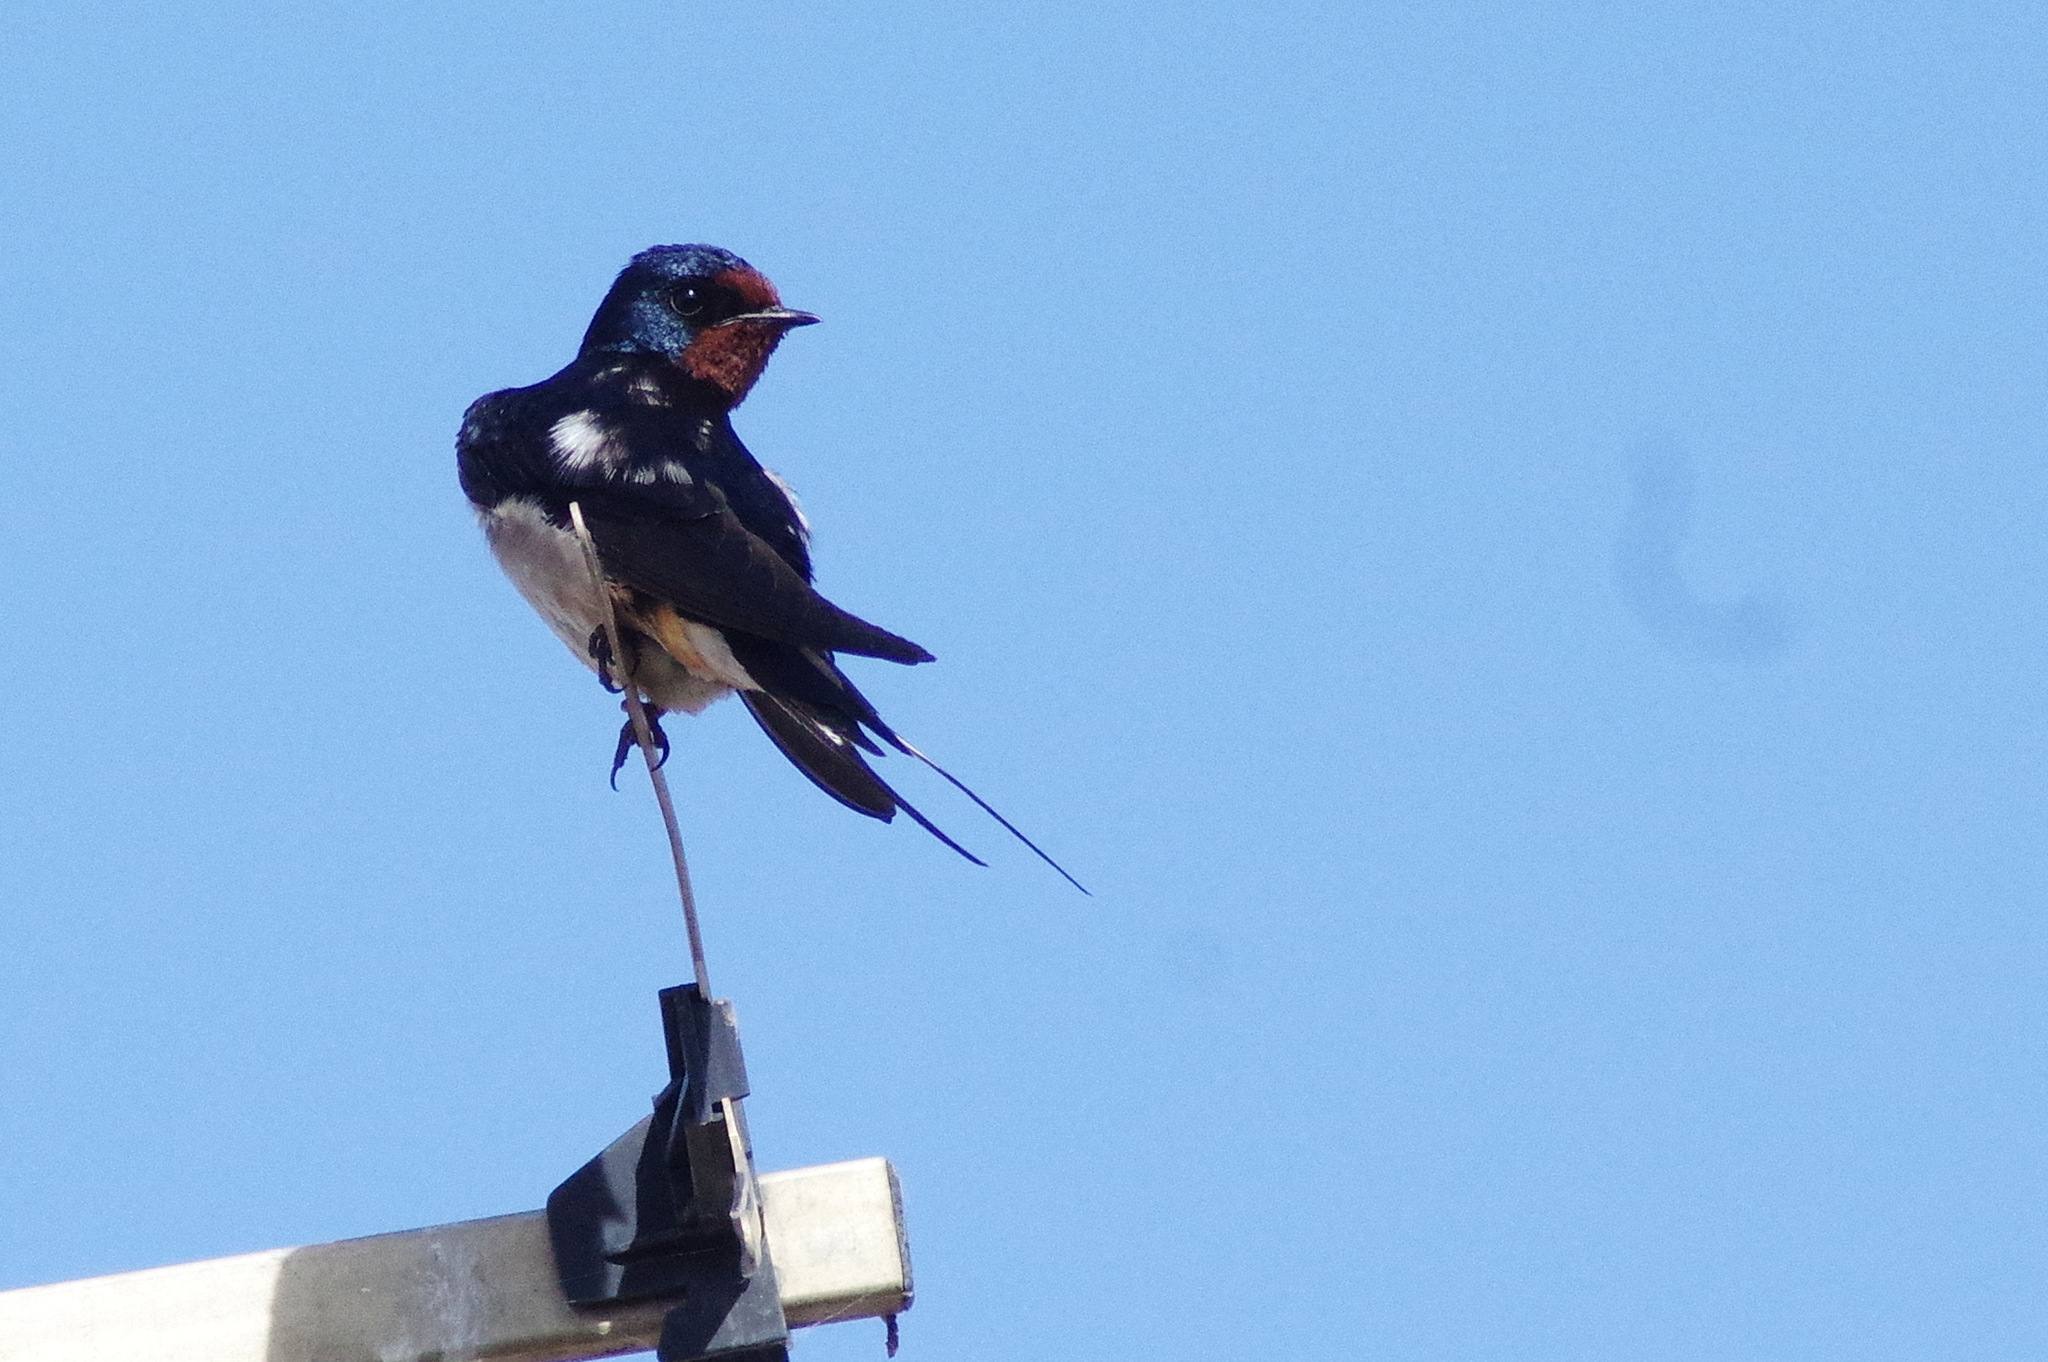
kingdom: Animalia
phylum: Chordata
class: Aves
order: Passeriformes
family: Hirundinidae
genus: Hirundo
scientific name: Hirundo rustica
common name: Barn swallow
